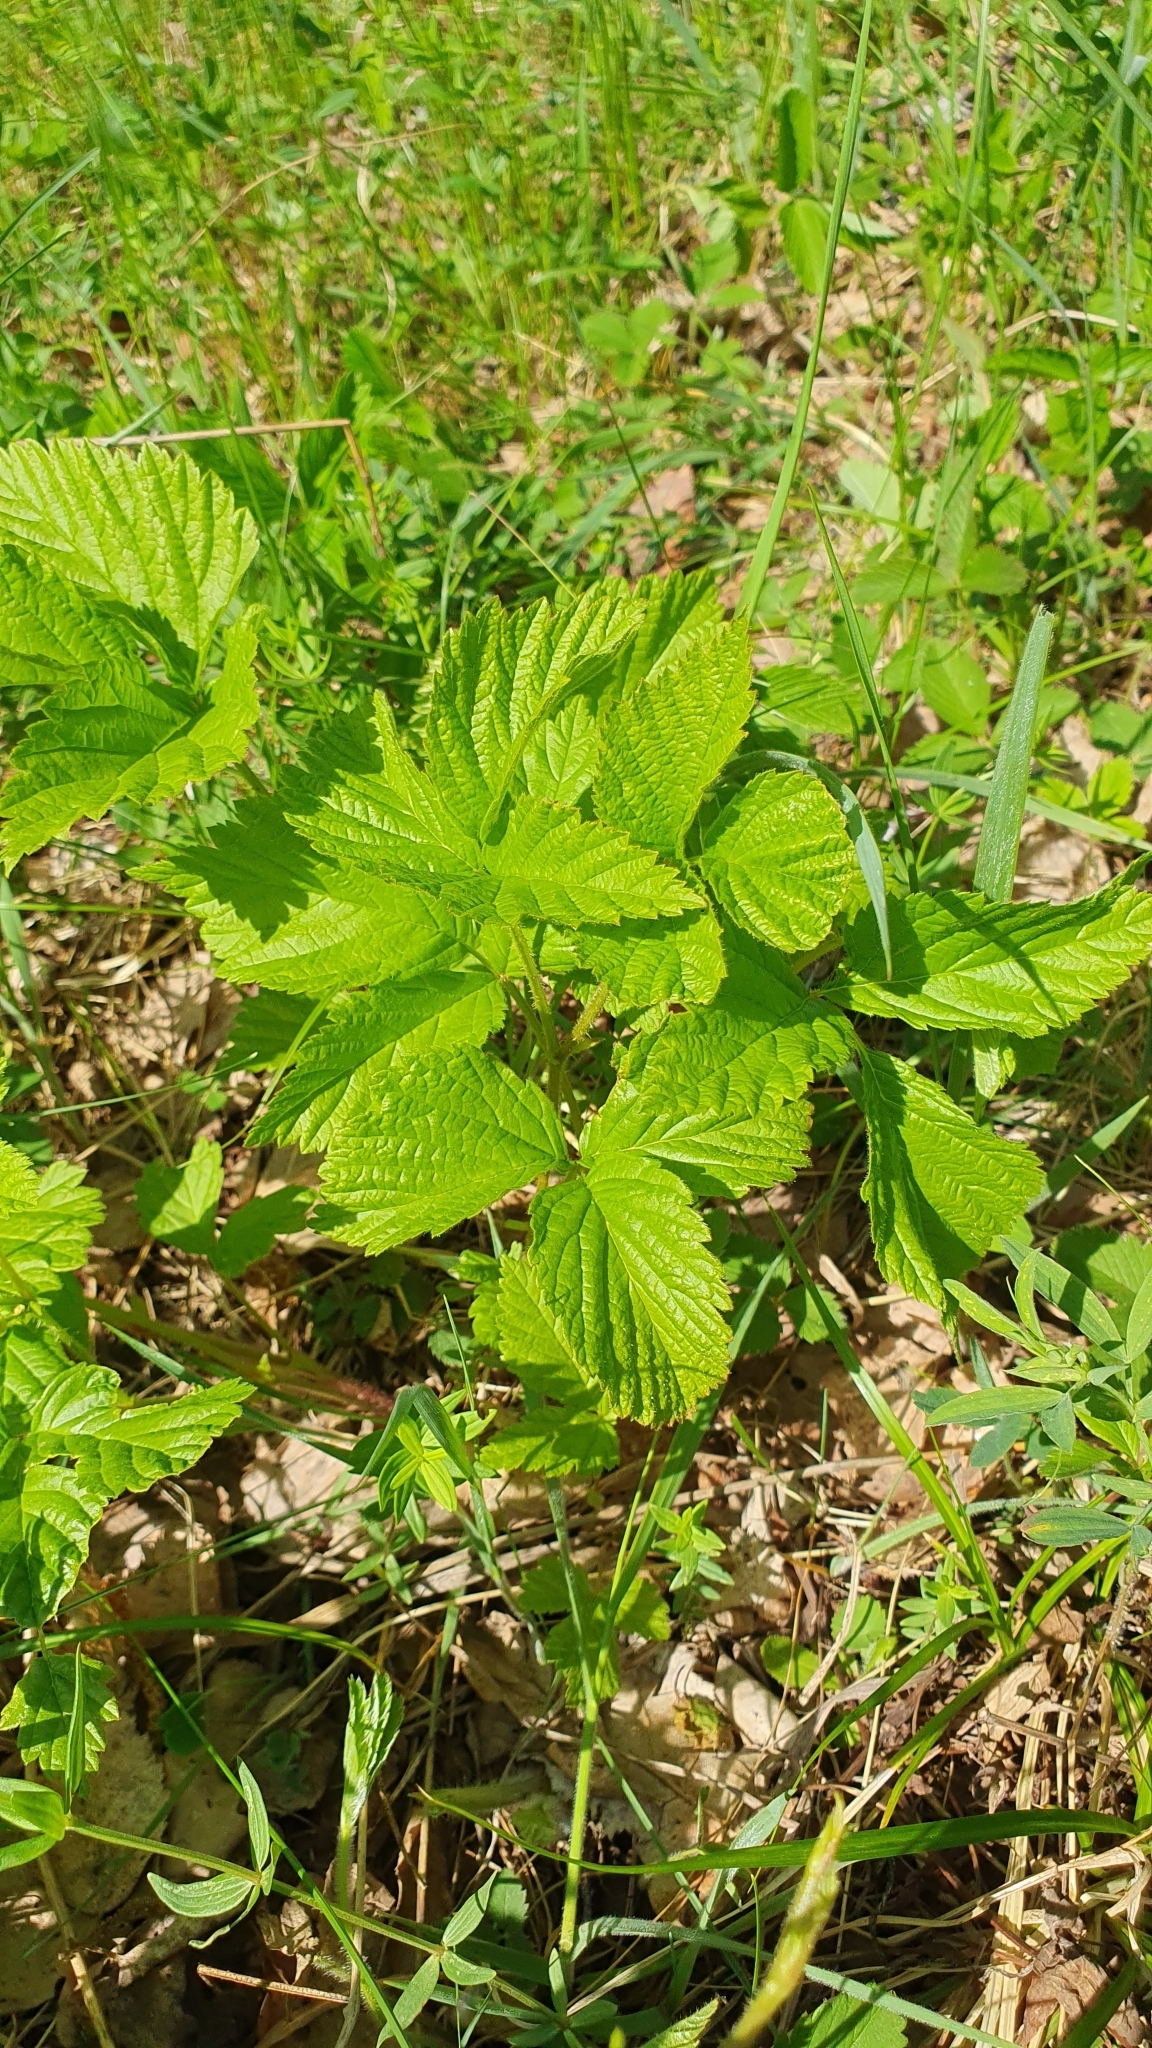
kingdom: Plantae
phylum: Tracheophyta
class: Magnoliopsida
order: Rosales
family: Rosaceae
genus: Rubus
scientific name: Rubus saxatilis
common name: Stone bramble
